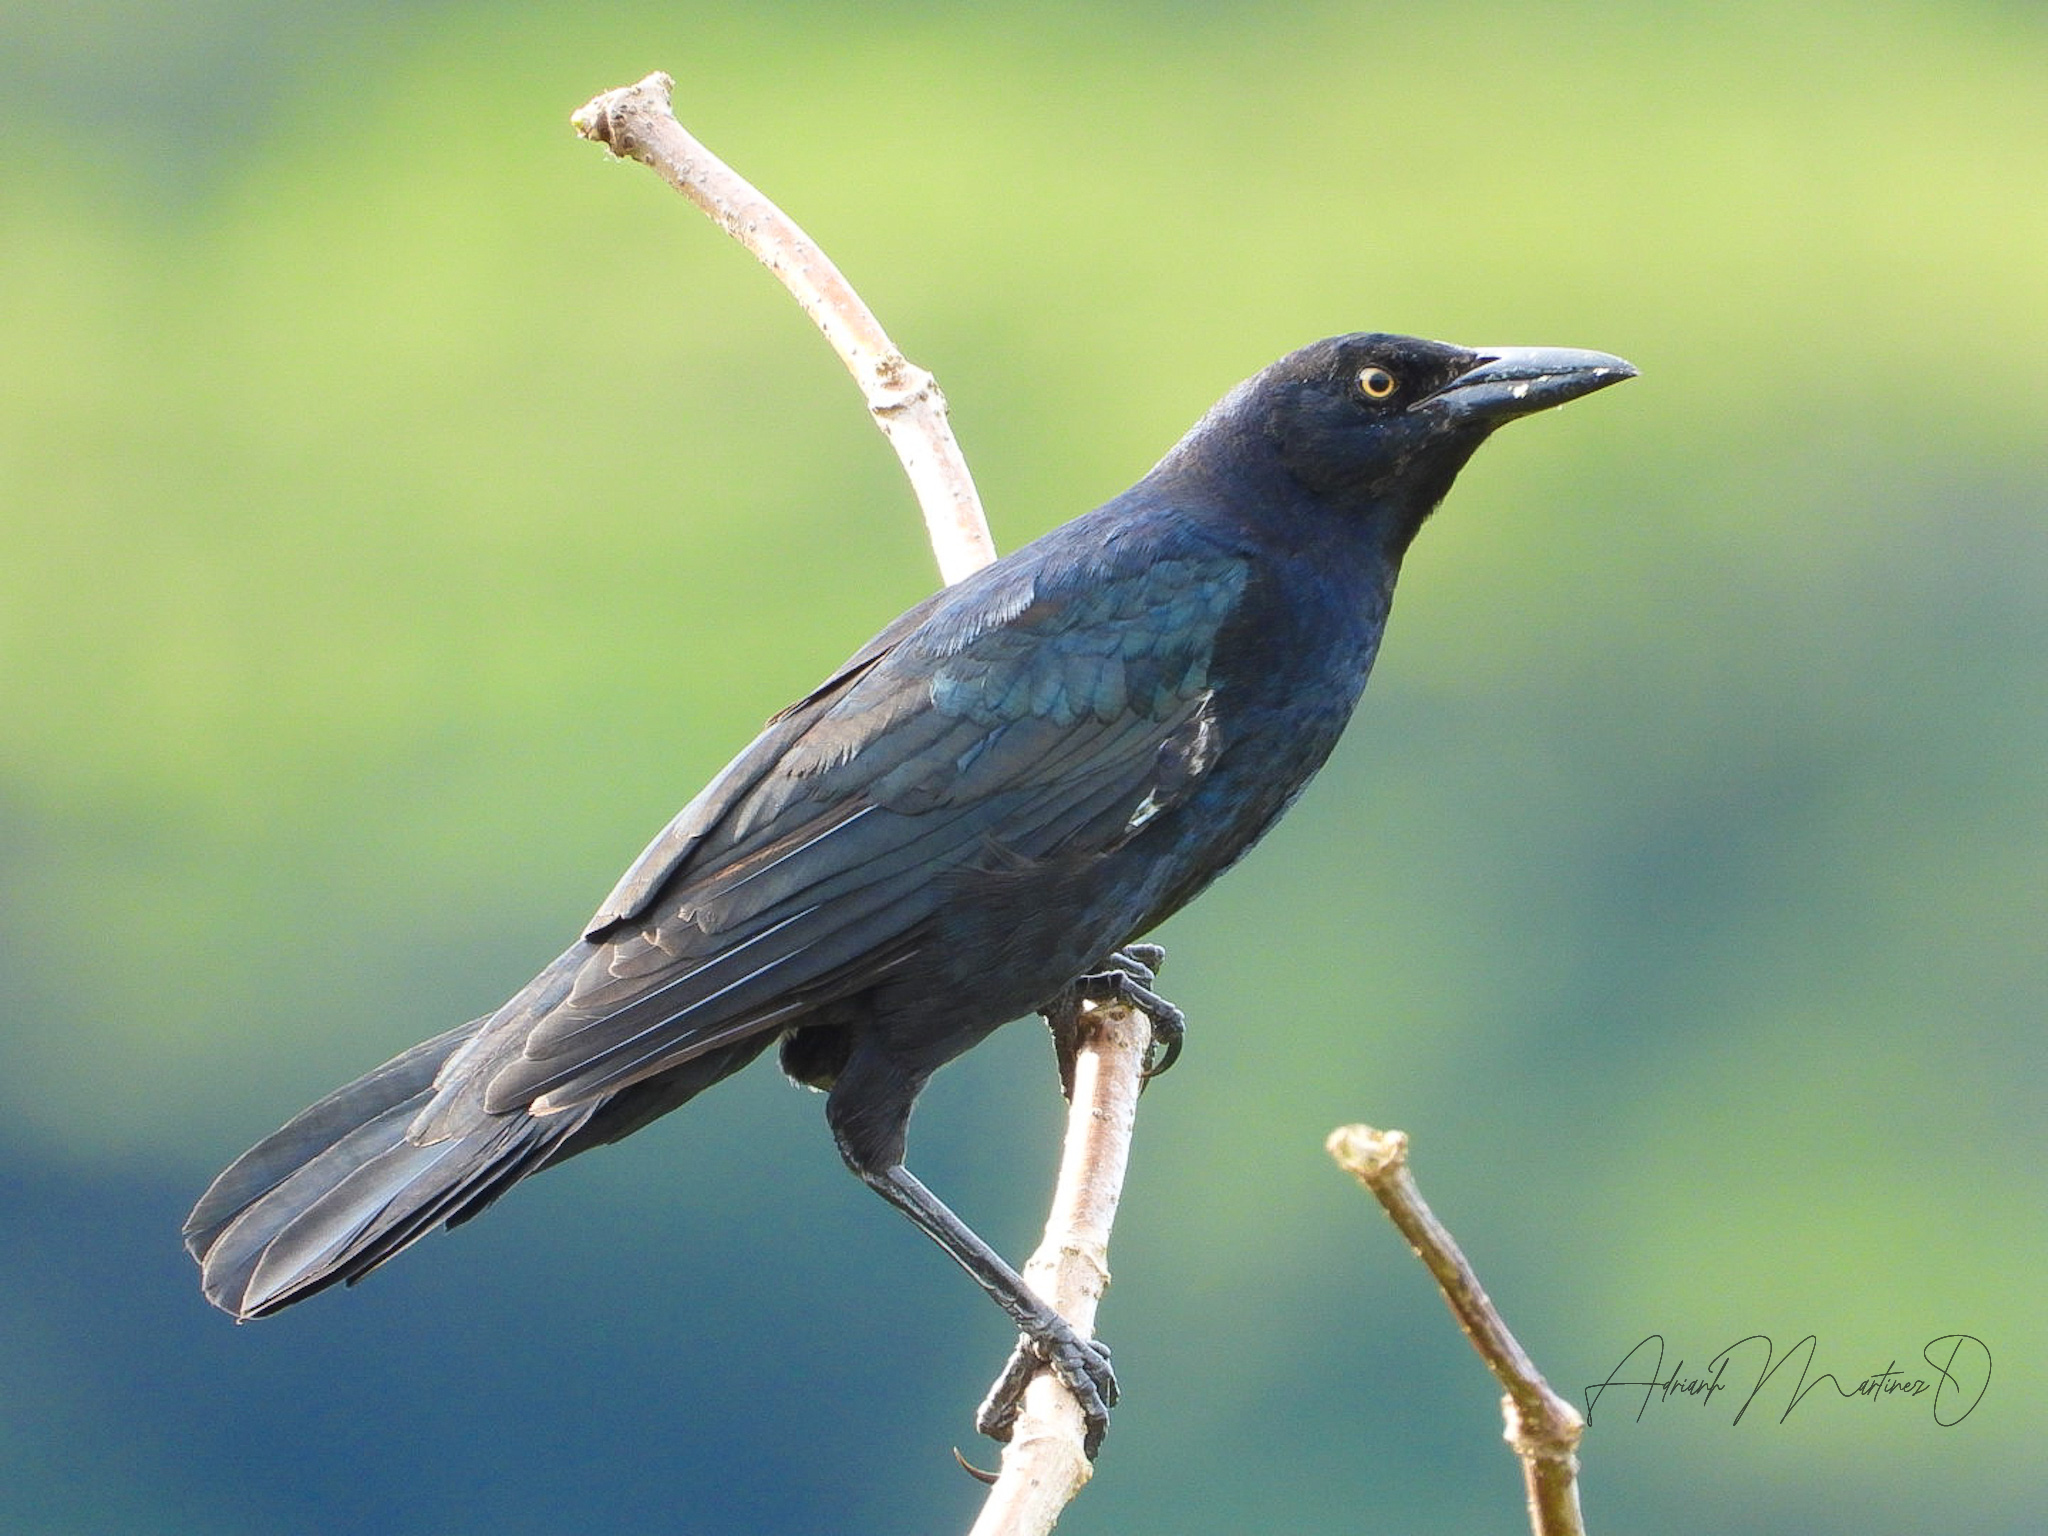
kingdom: Animalia
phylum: Chordata
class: Aves
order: Passeriformes
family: Icteridae
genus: Quiscalus
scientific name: Quiscalus mexicanus
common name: Great-tailed grackle
